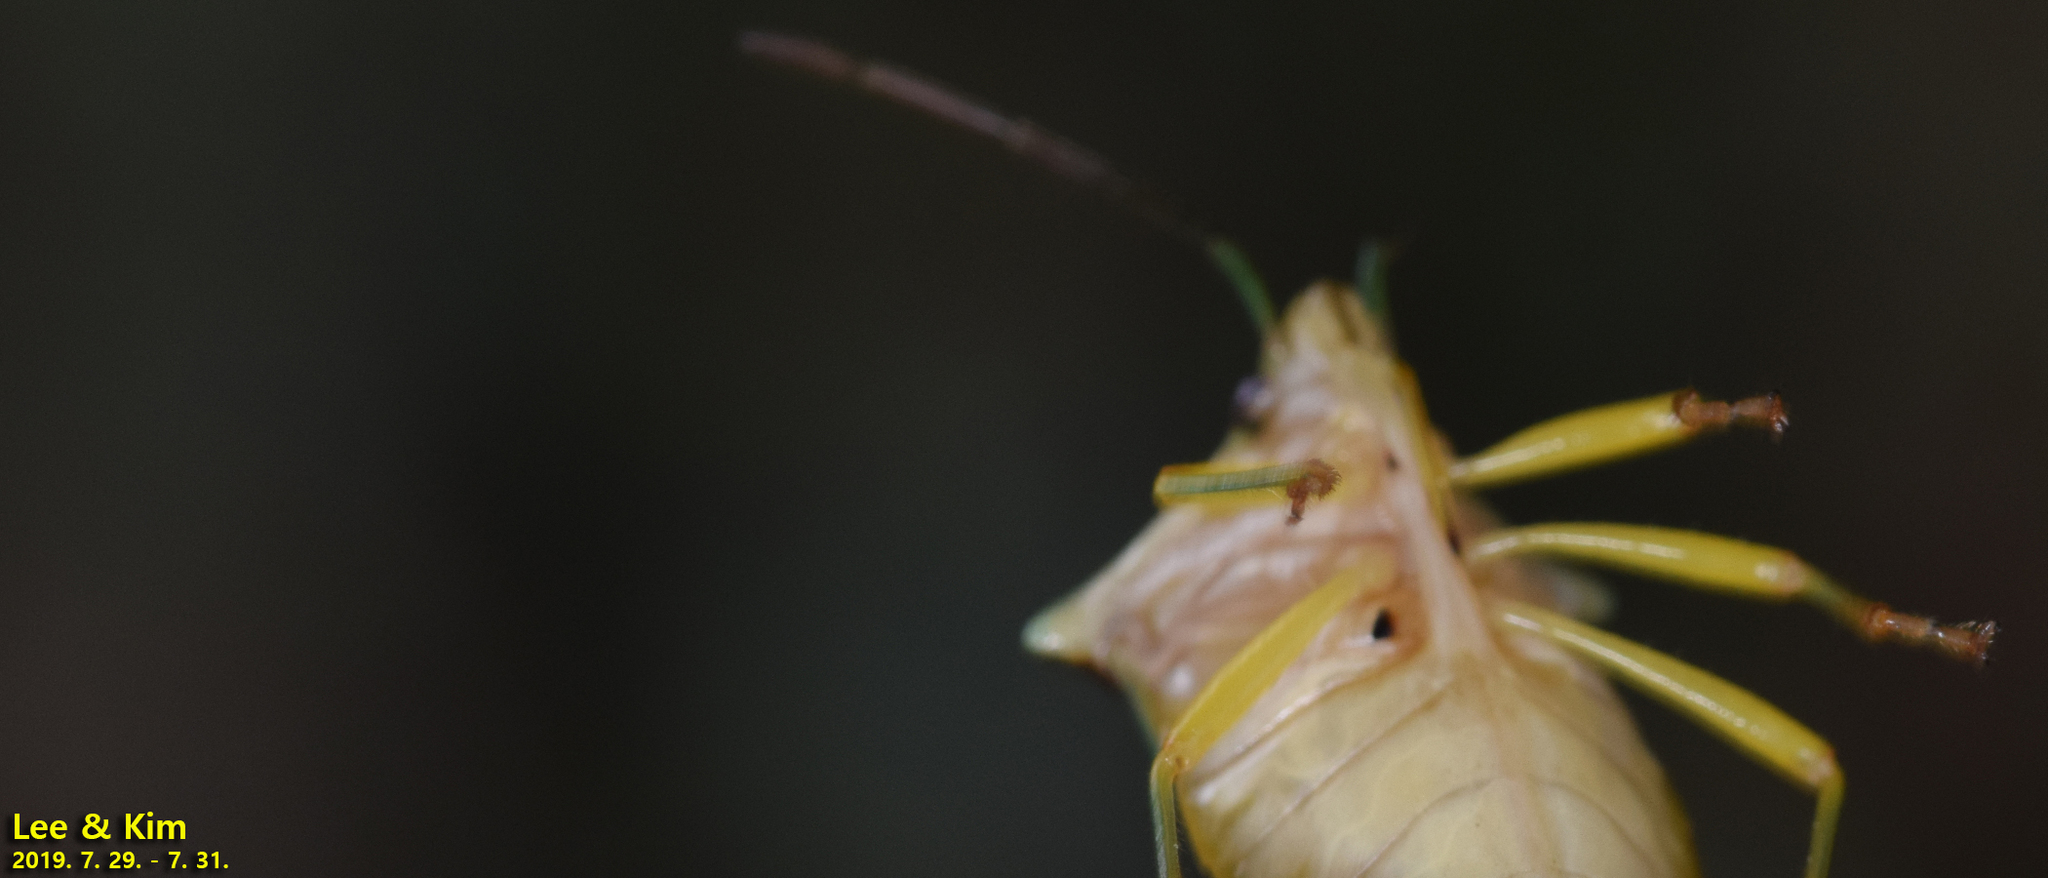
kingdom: Animalia
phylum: Arthropoda
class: Insecta
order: Hemiptera
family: Acanthosomatidae
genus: Sastragala
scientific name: Sastragala esakii
